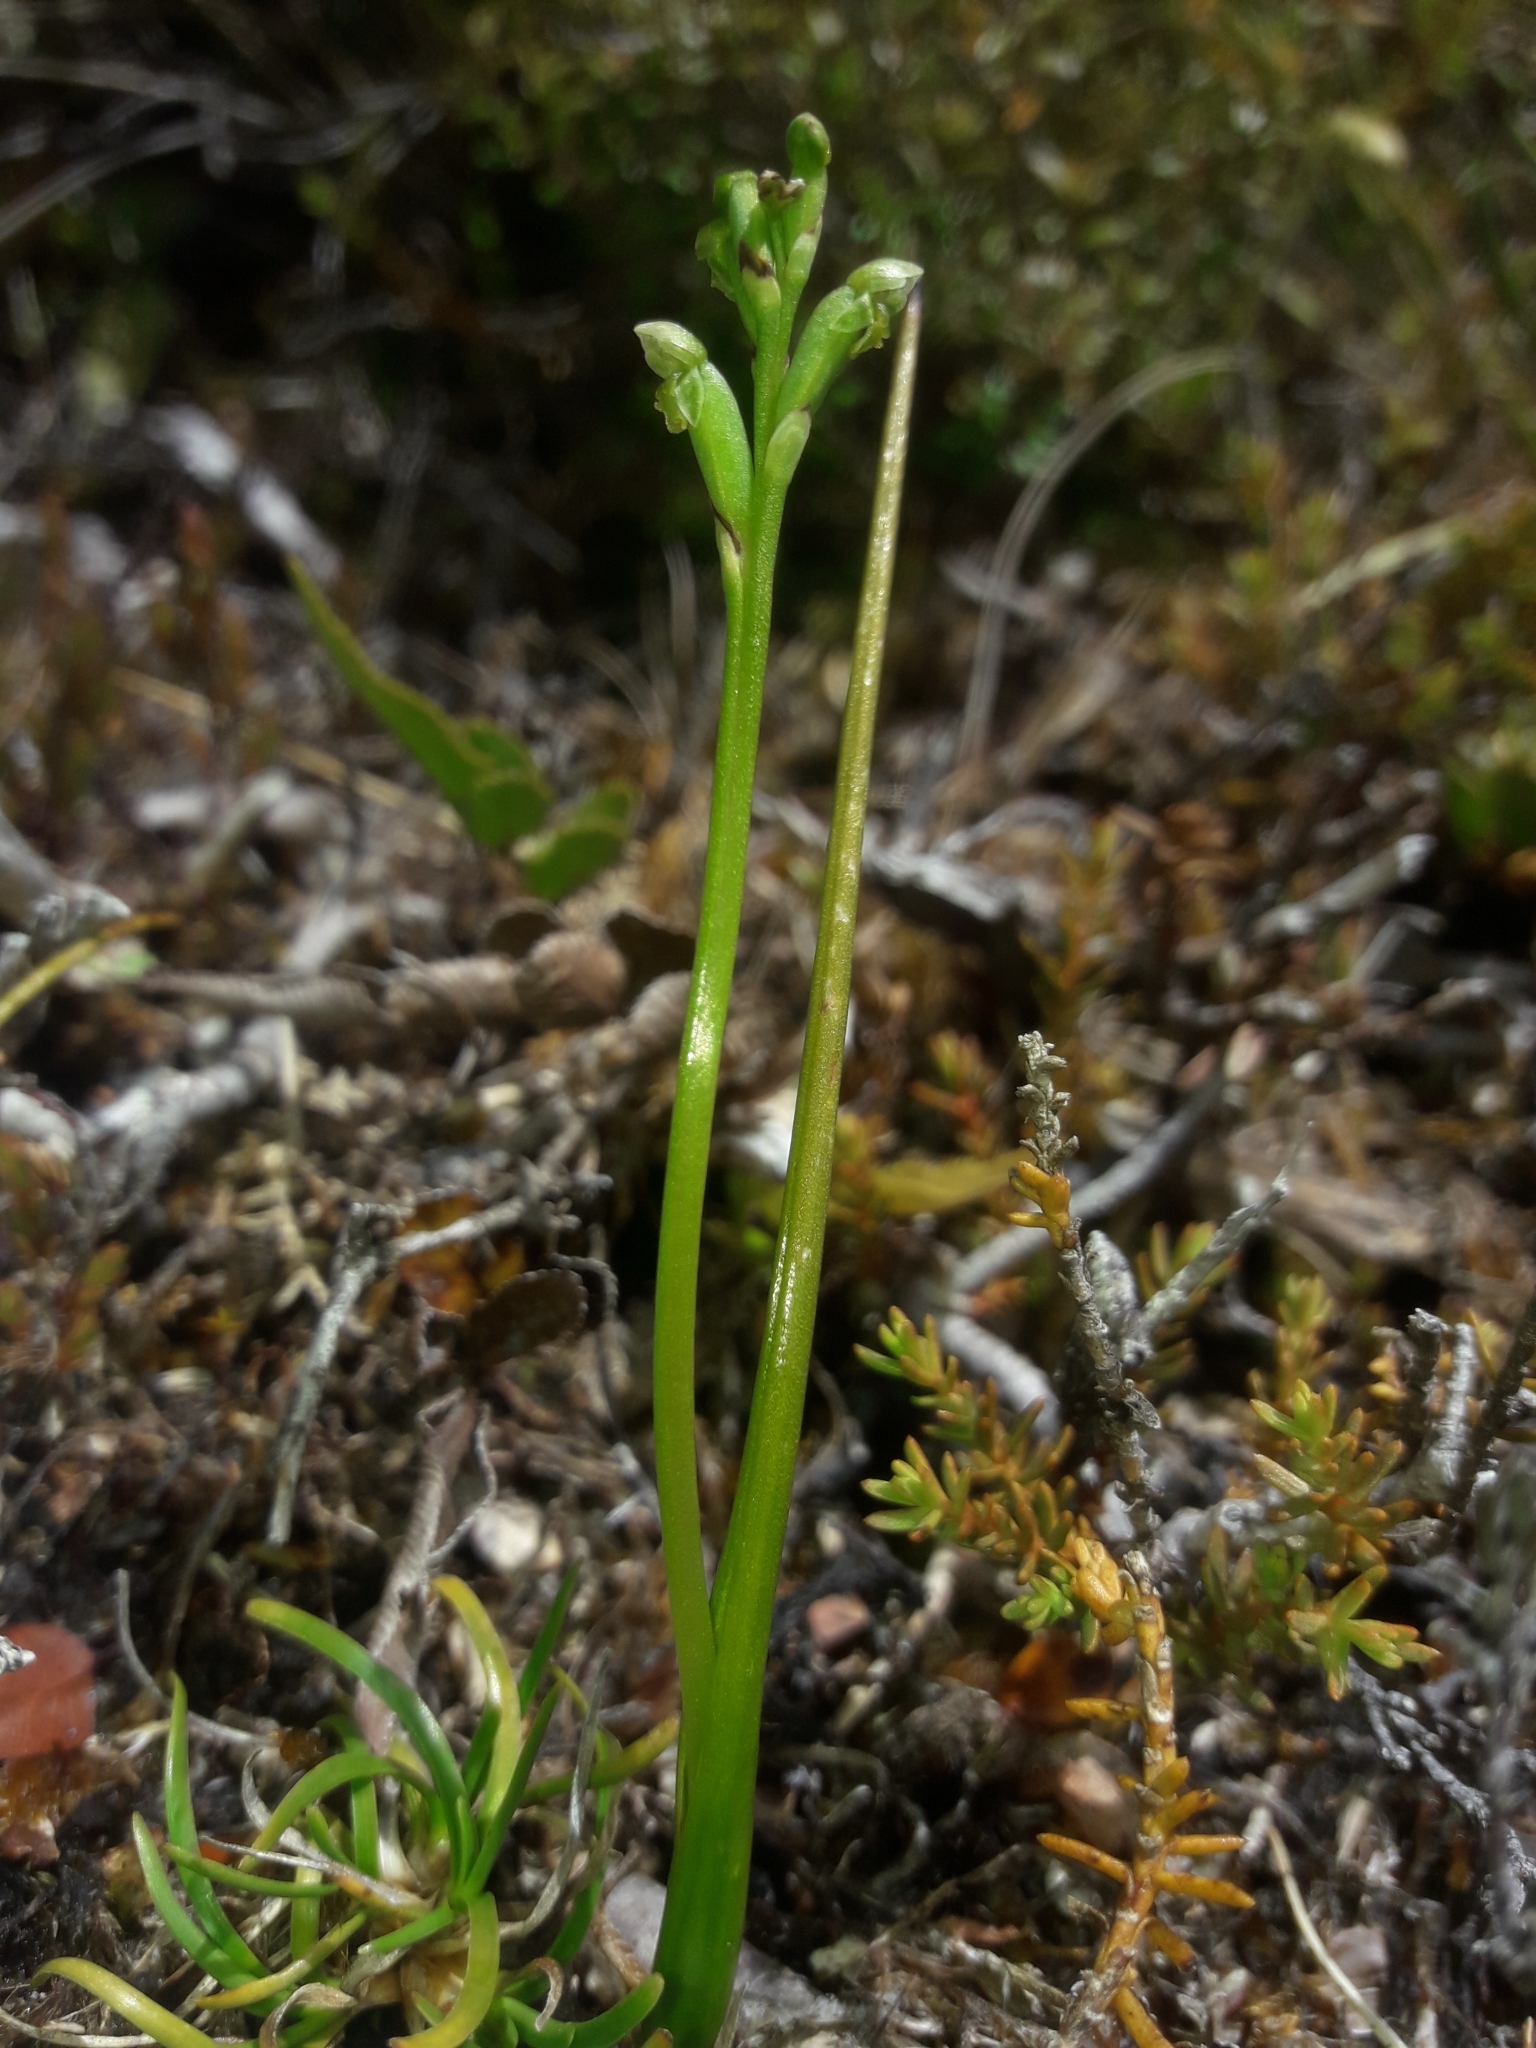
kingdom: Plantae
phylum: Tracheophyta
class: Liliopsida
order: Asparagales
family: Orchidaceae
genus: Microtis
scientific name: Microtis oligantha
